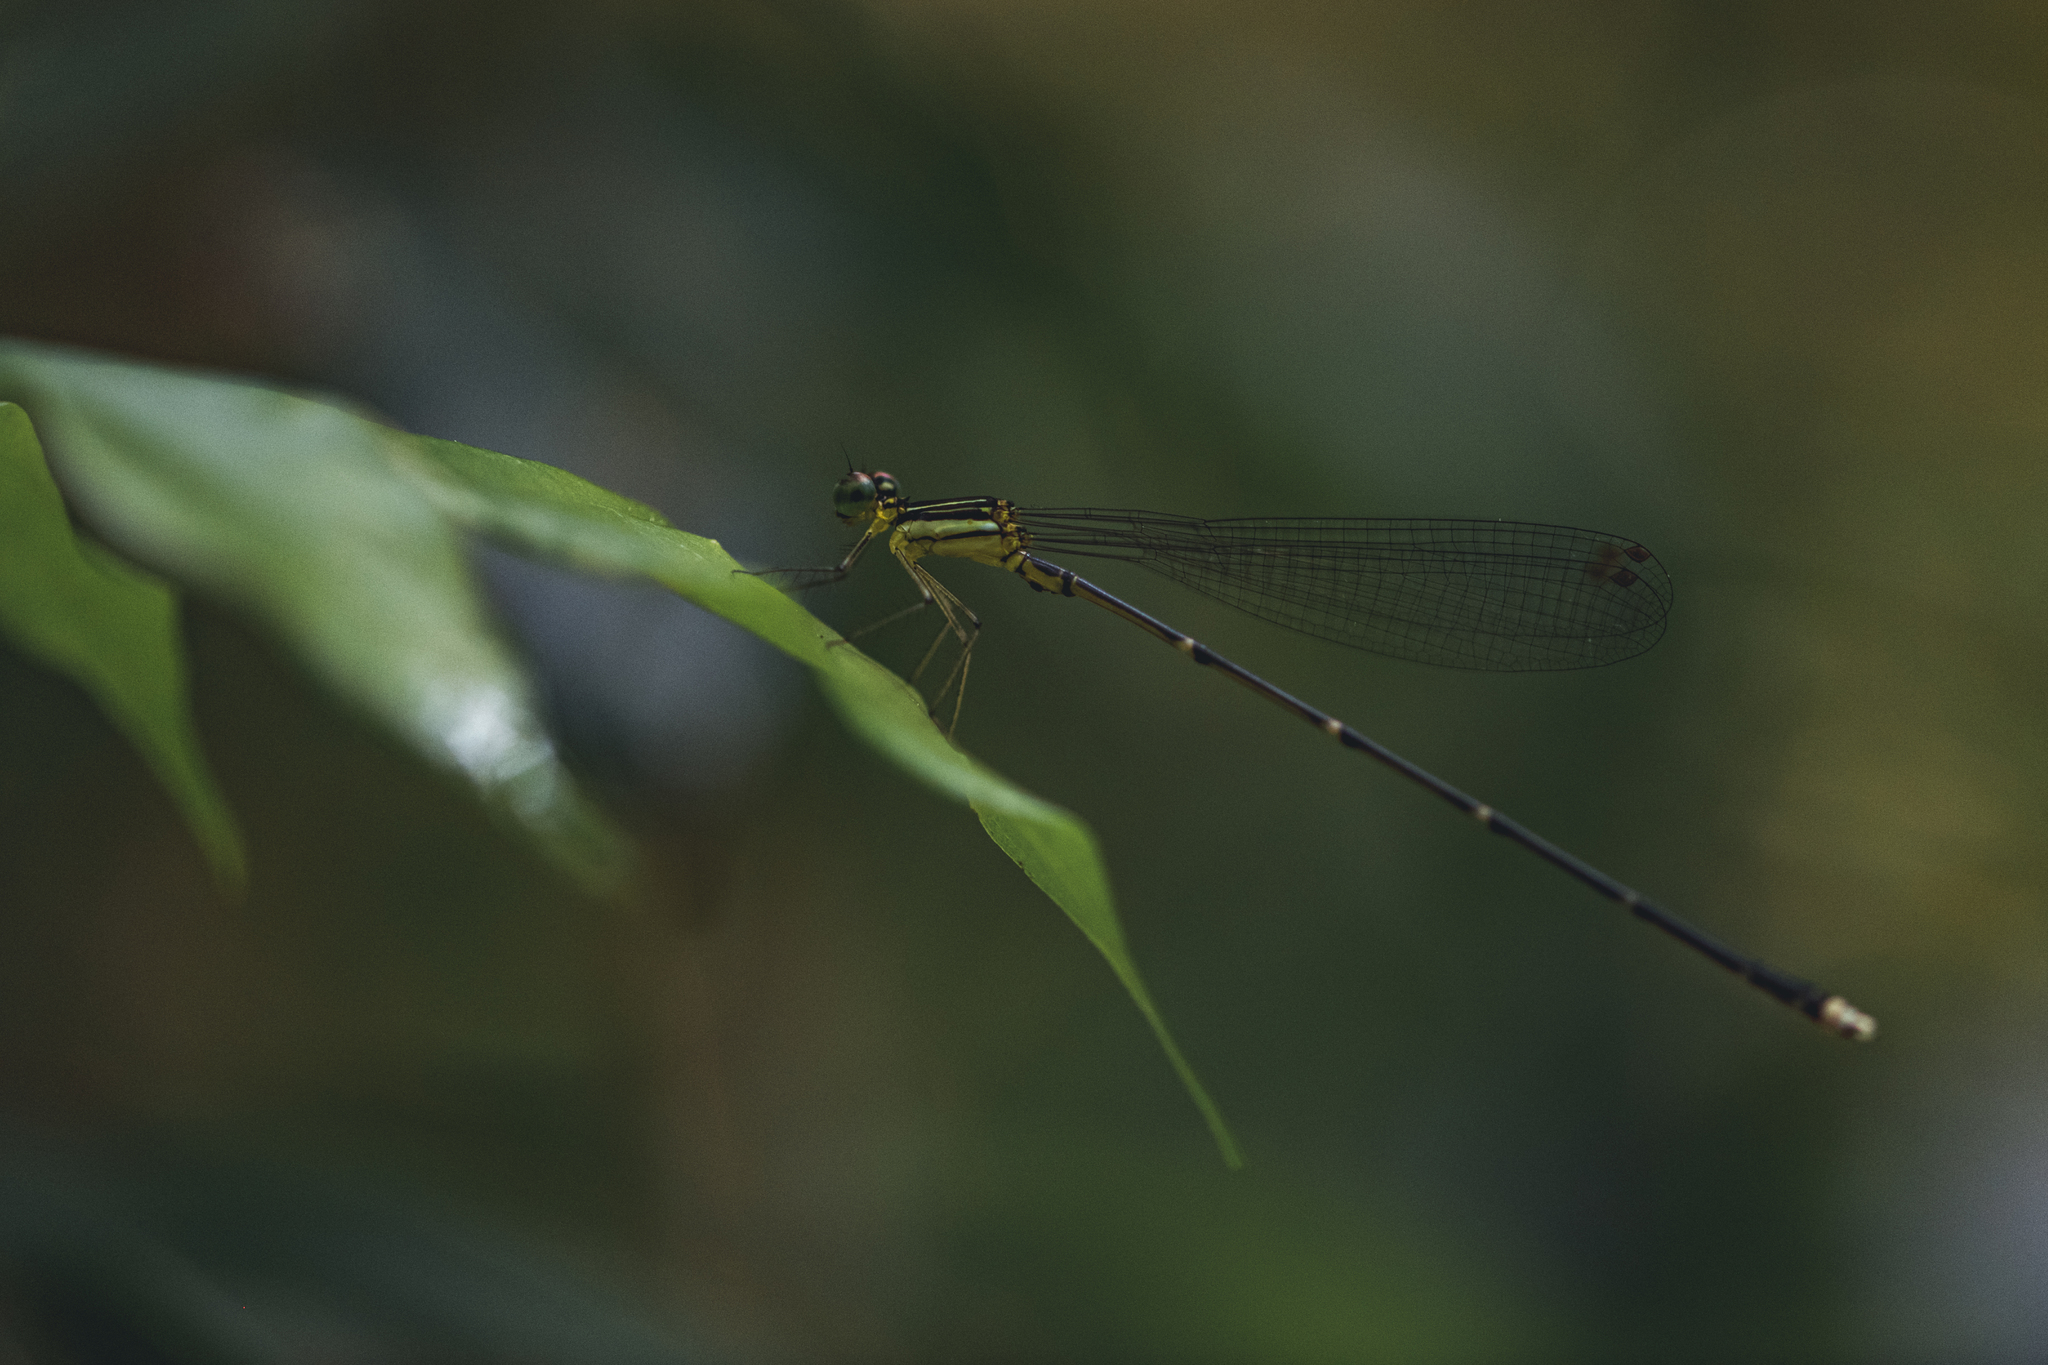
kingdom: Animalia
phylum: Arthropoda
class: Insecta
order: Odonata
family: Platycnemididae
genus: Coeliccia
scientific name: Coeliccia rolandorum
